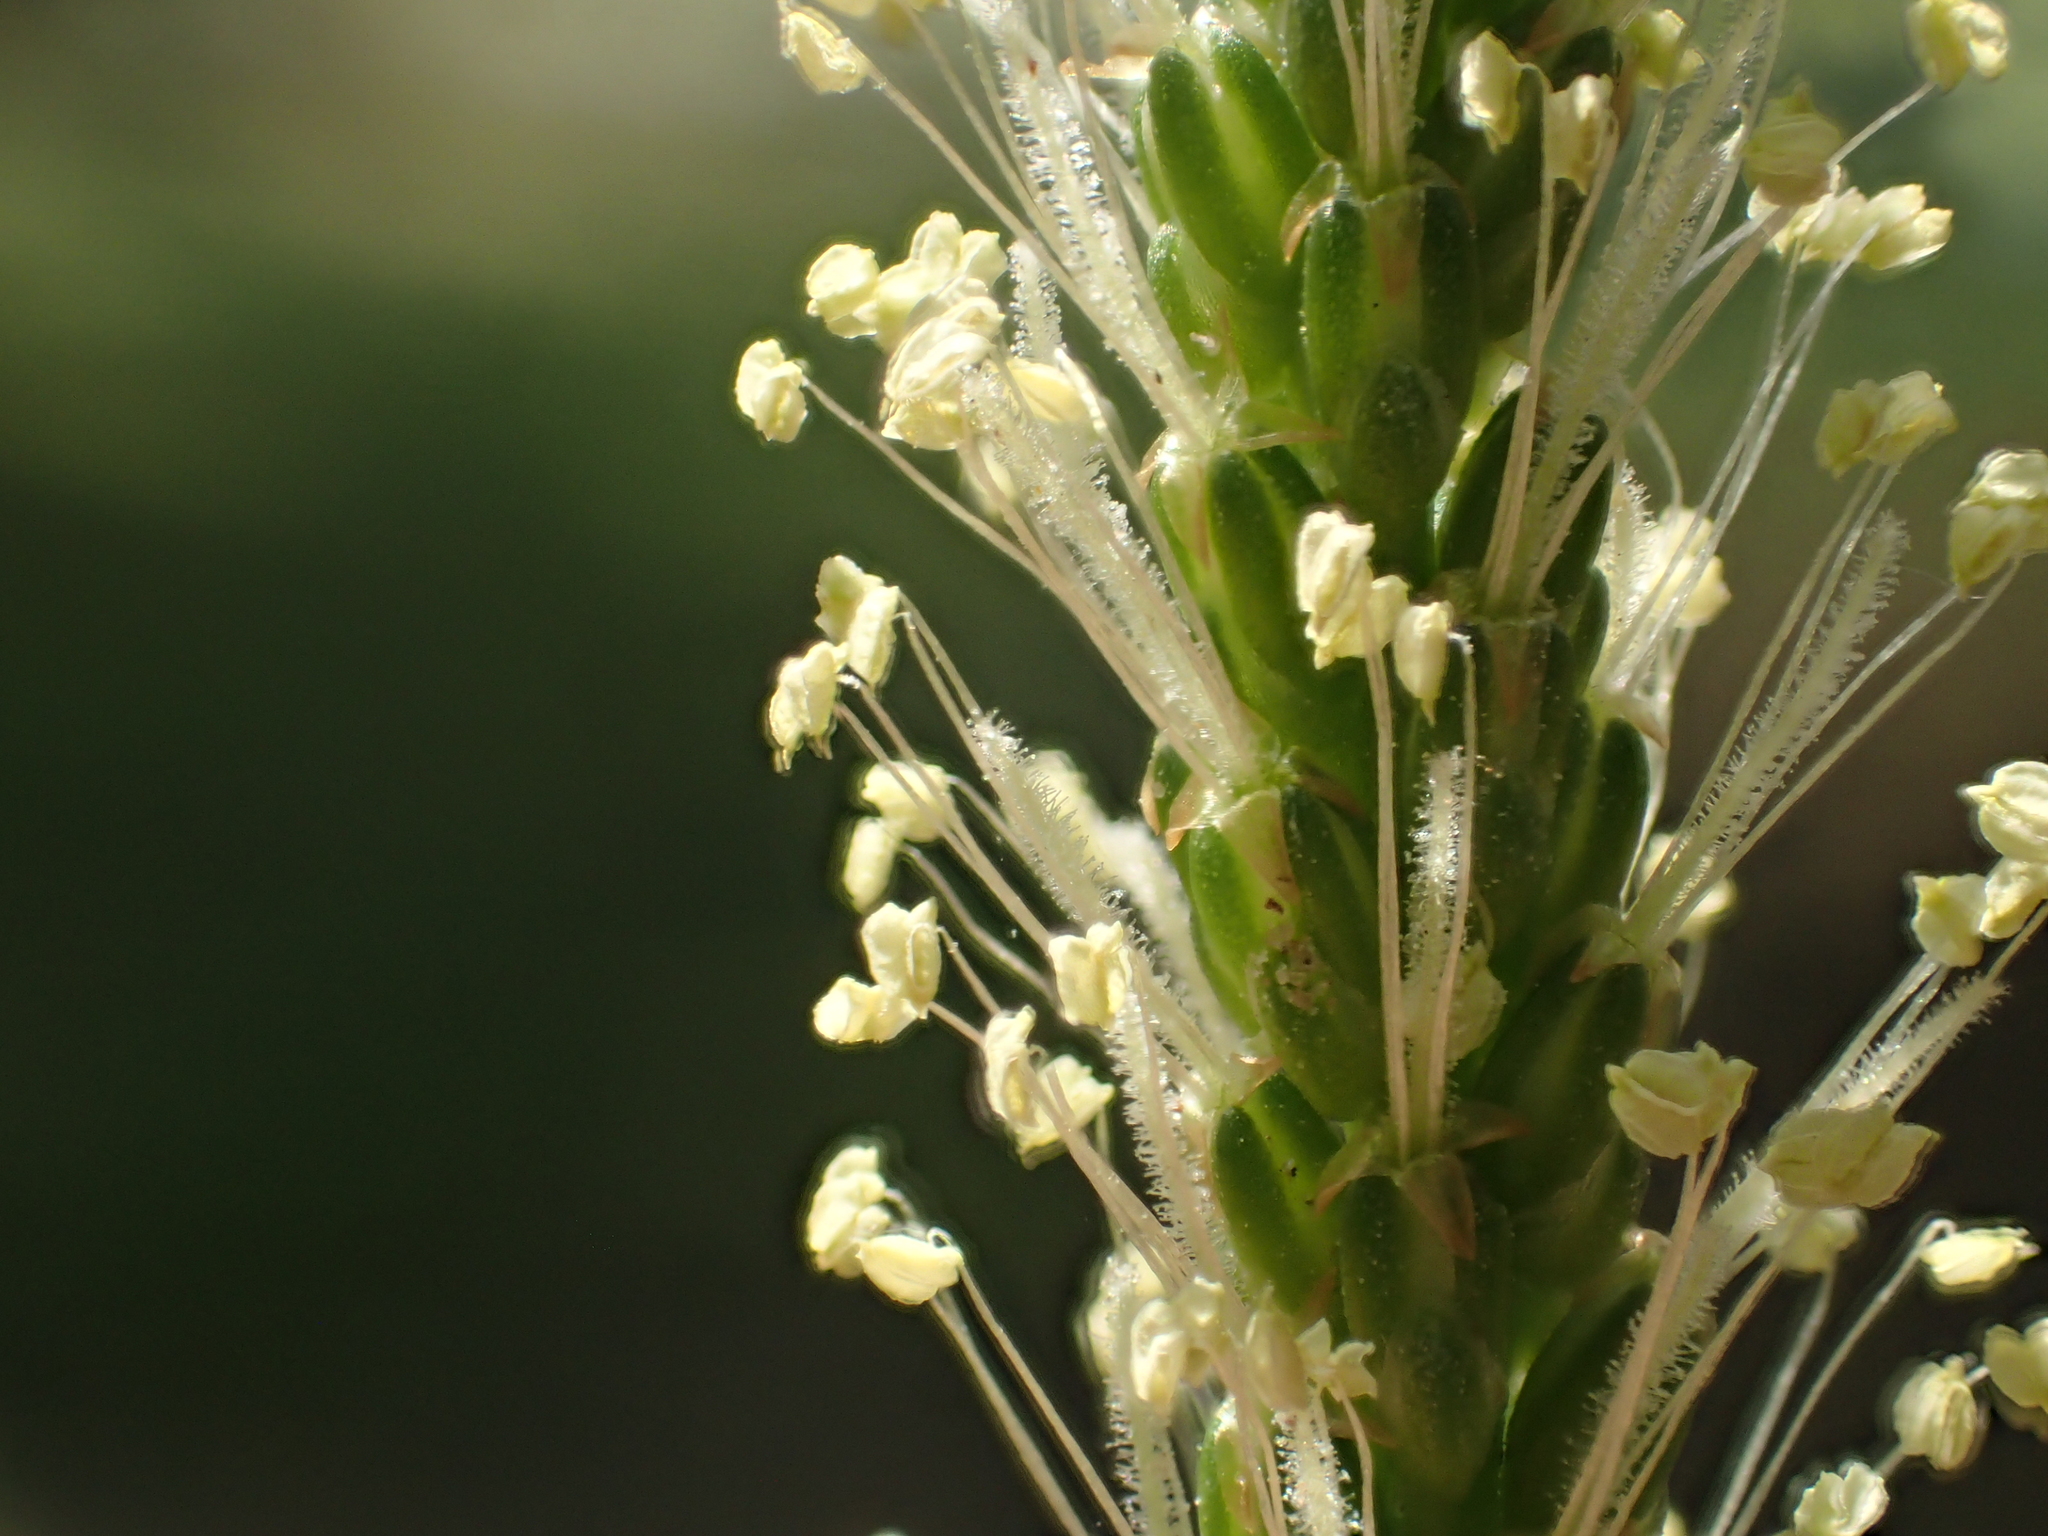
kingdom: Plantae
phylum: Tracheophyta
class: Magnoliopsida
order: Lamiales
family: Plantaginaceae
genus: Plantago
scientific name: Plantago asiatica
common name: Psyllium
